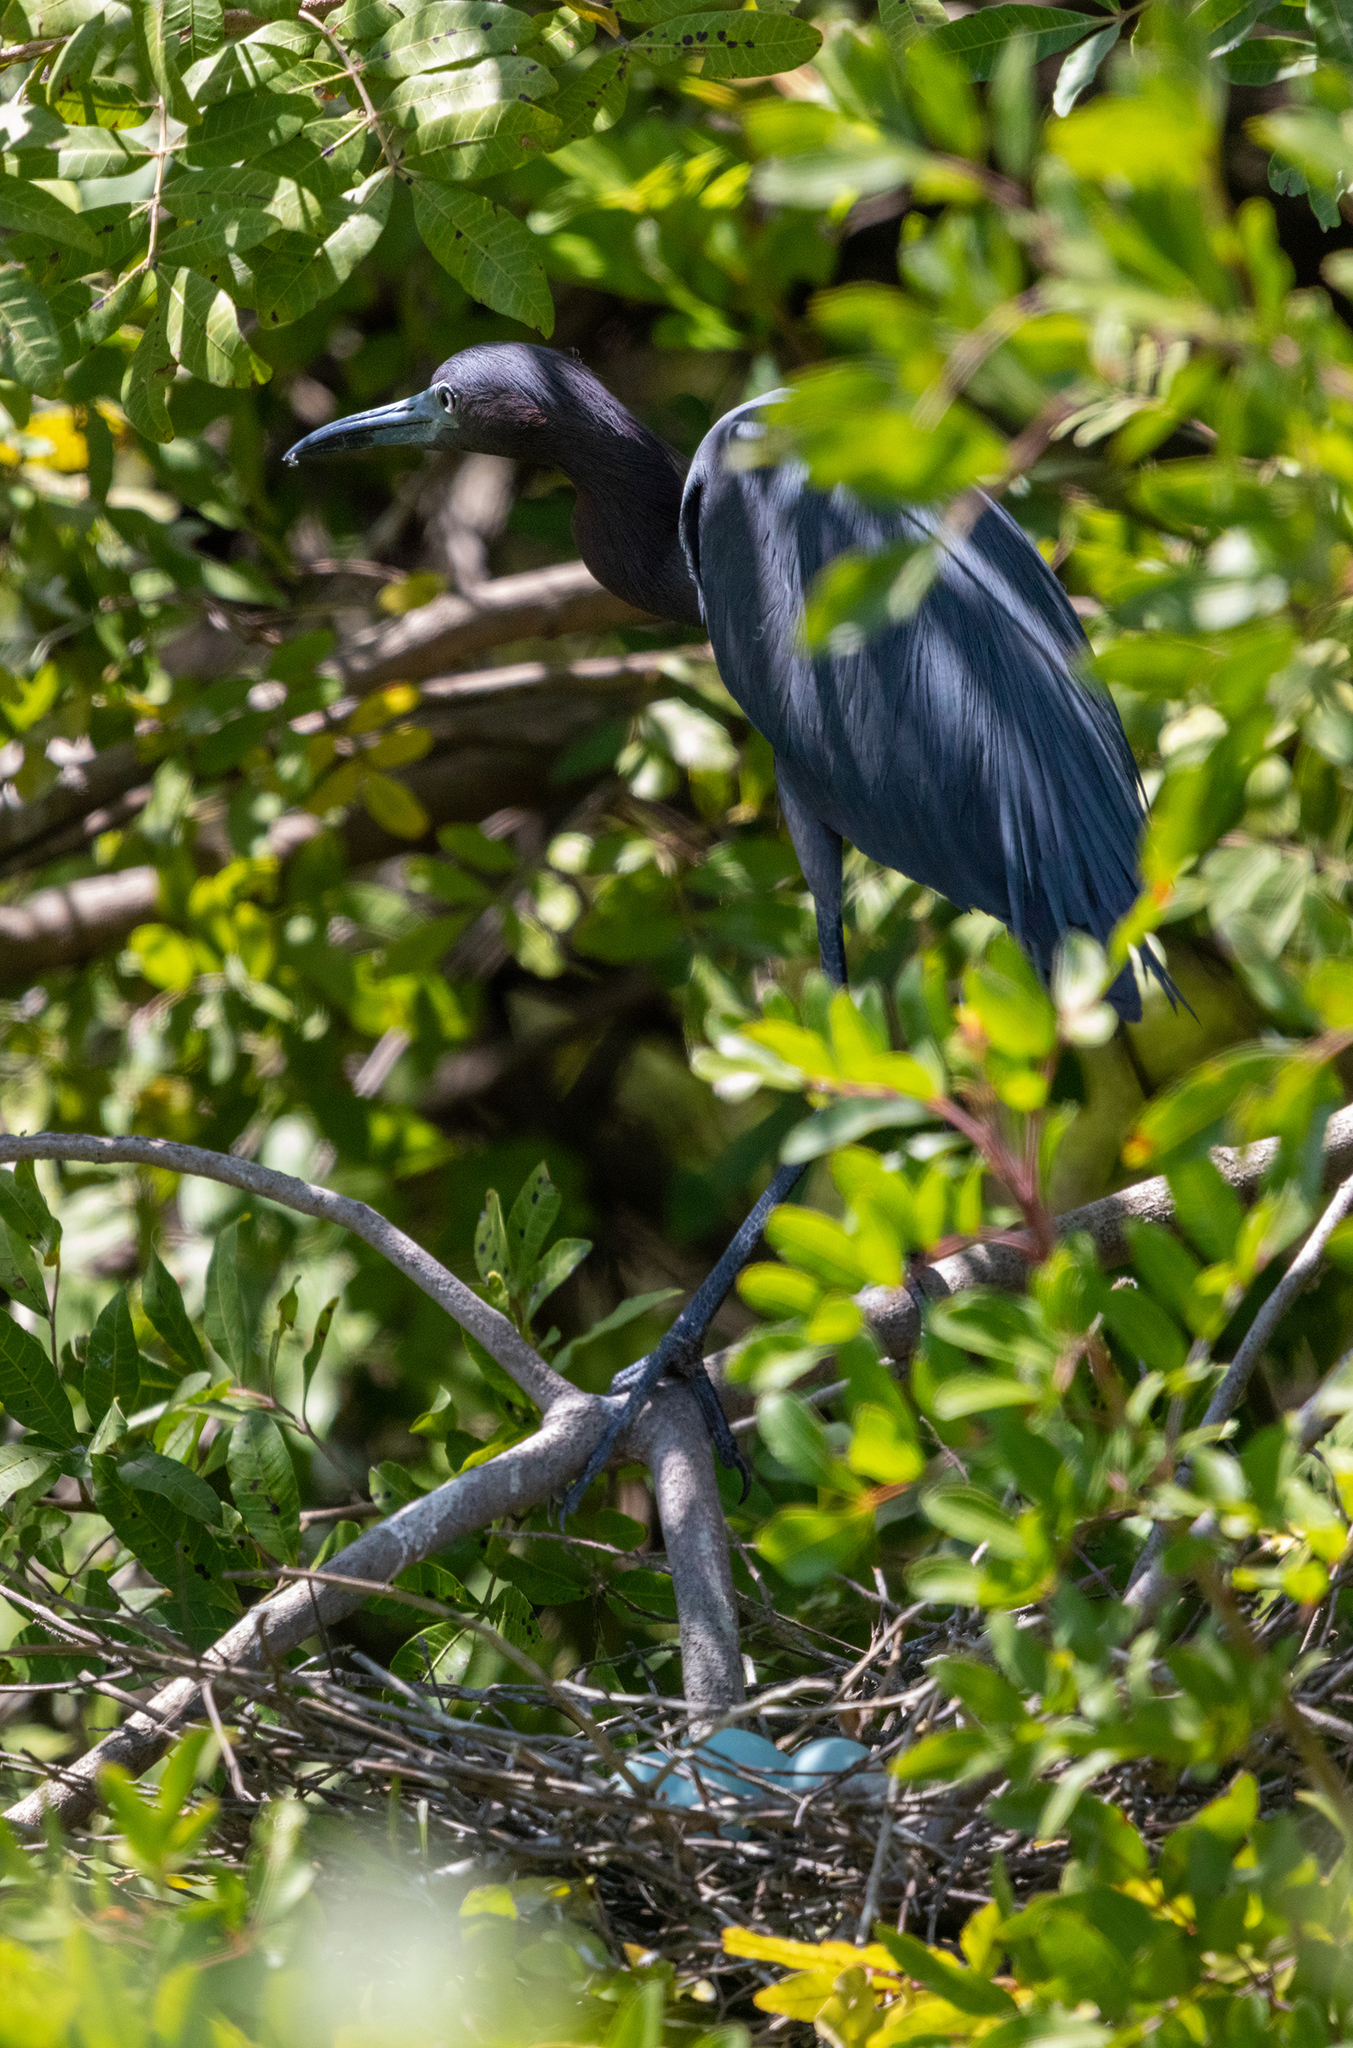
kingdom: Animalia
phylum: Chordata
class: Aves
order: Pelecaniformes
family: Ardeidae
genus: Egretta
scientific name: Egretta caerulea
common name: Little blue heron
